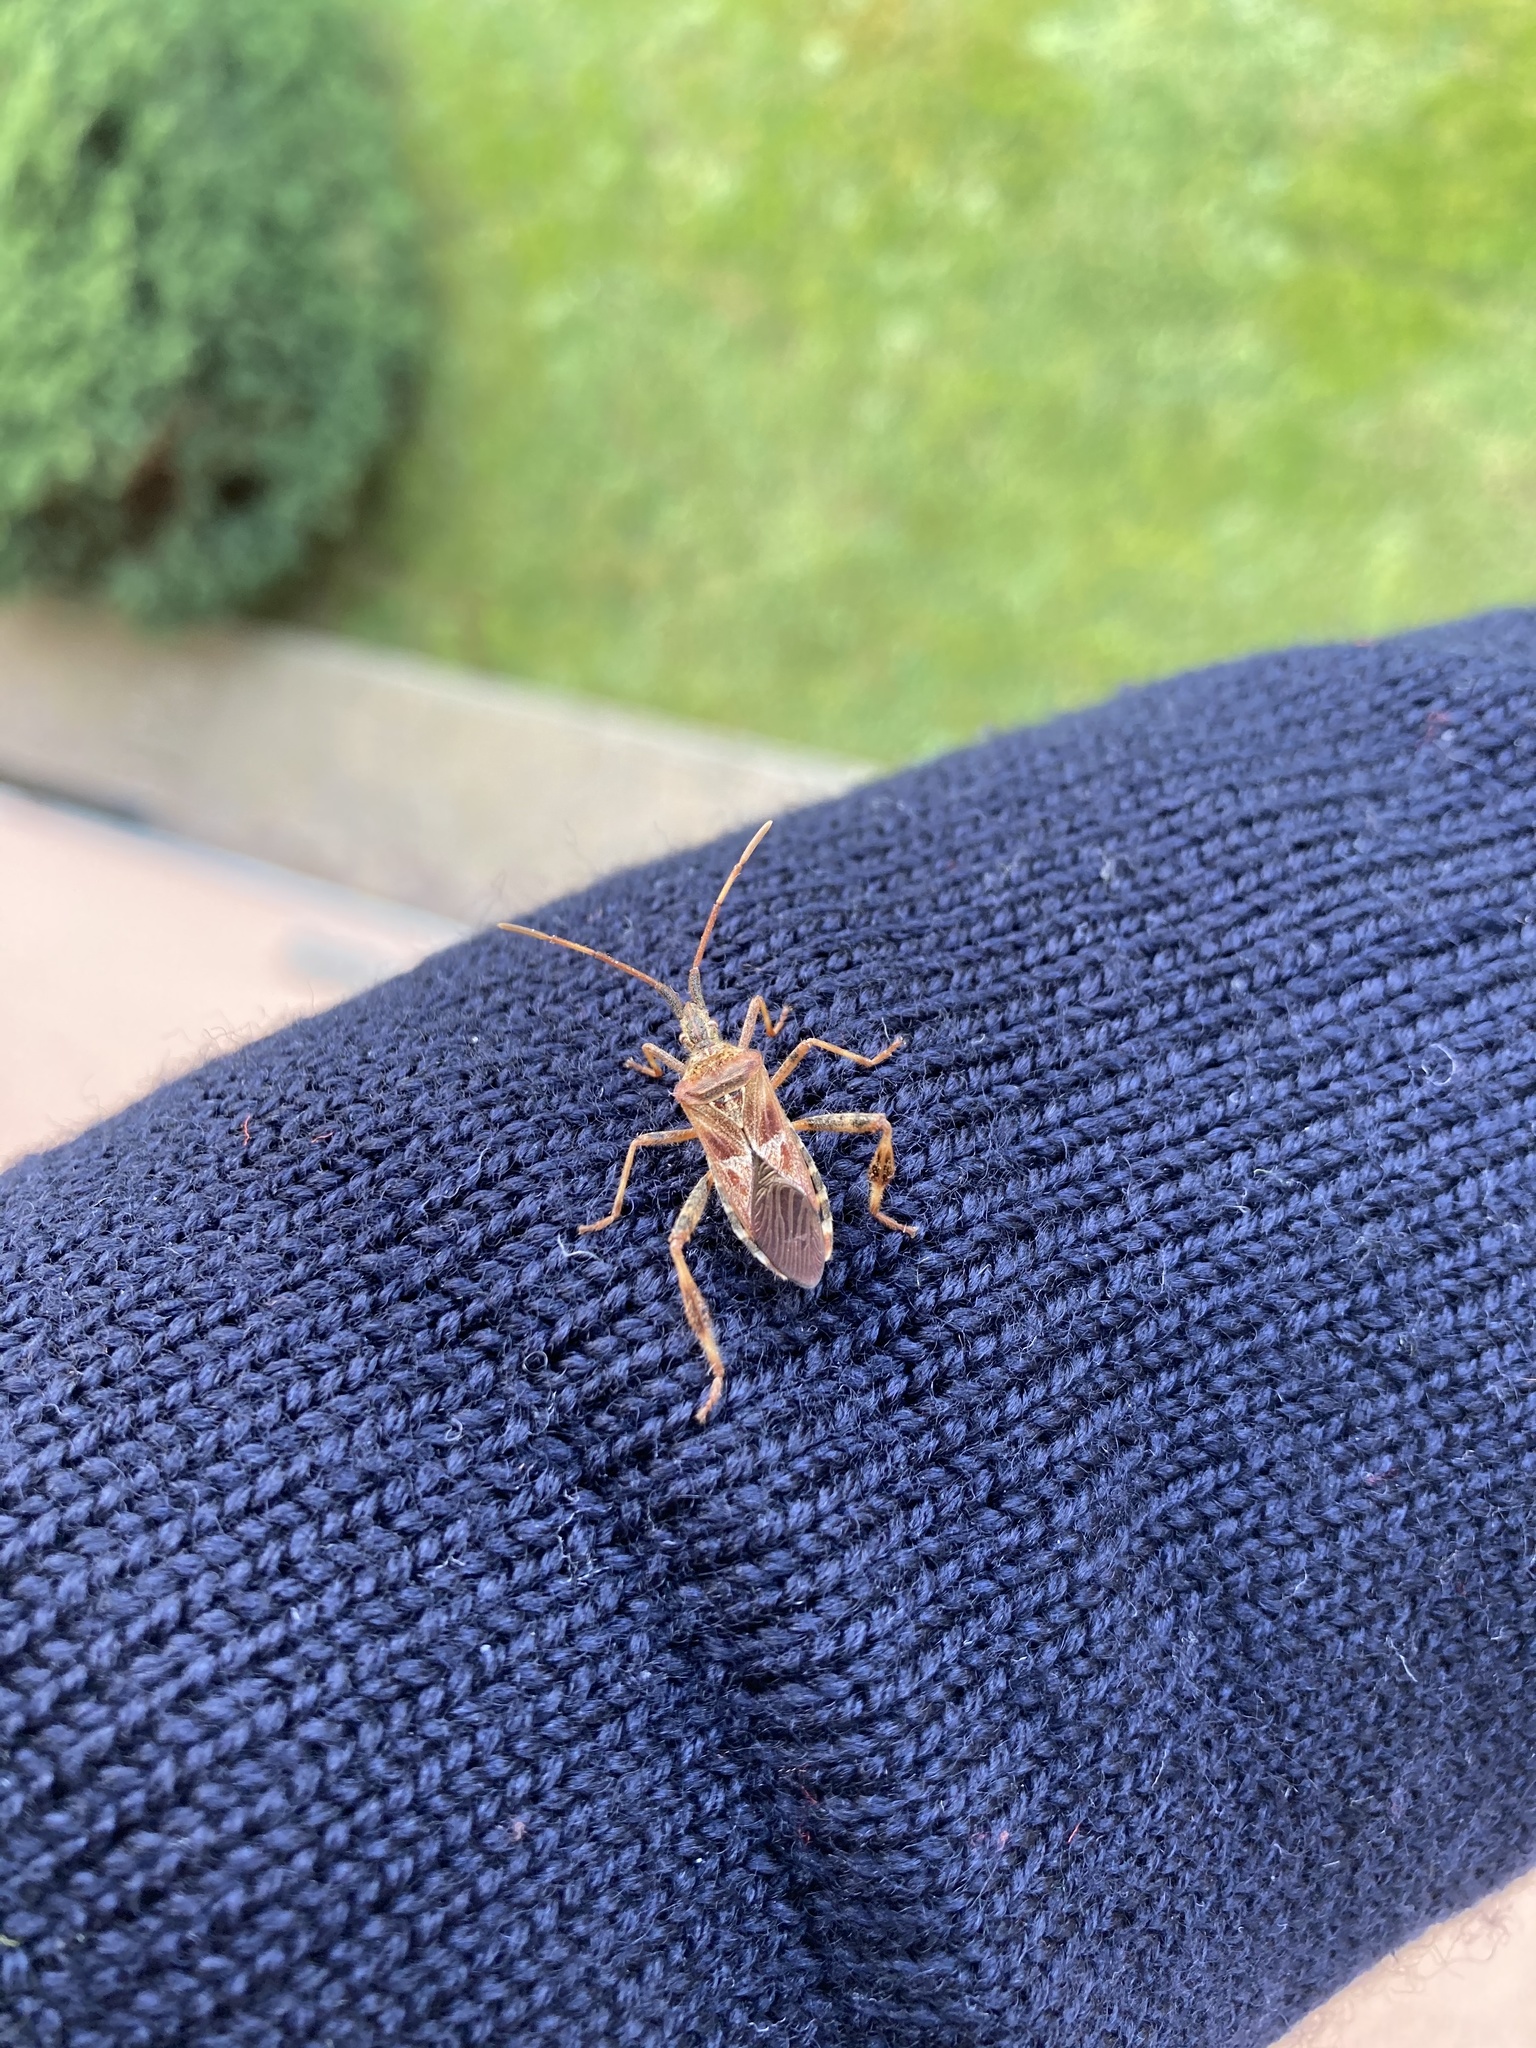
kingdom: Animalia
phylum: Arthropoda
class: Insecta
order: Hemiptera
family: Coreidae
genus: Leptoglossus
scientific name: Leptoglossus occidentalis
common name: Western conifer-seed bug
